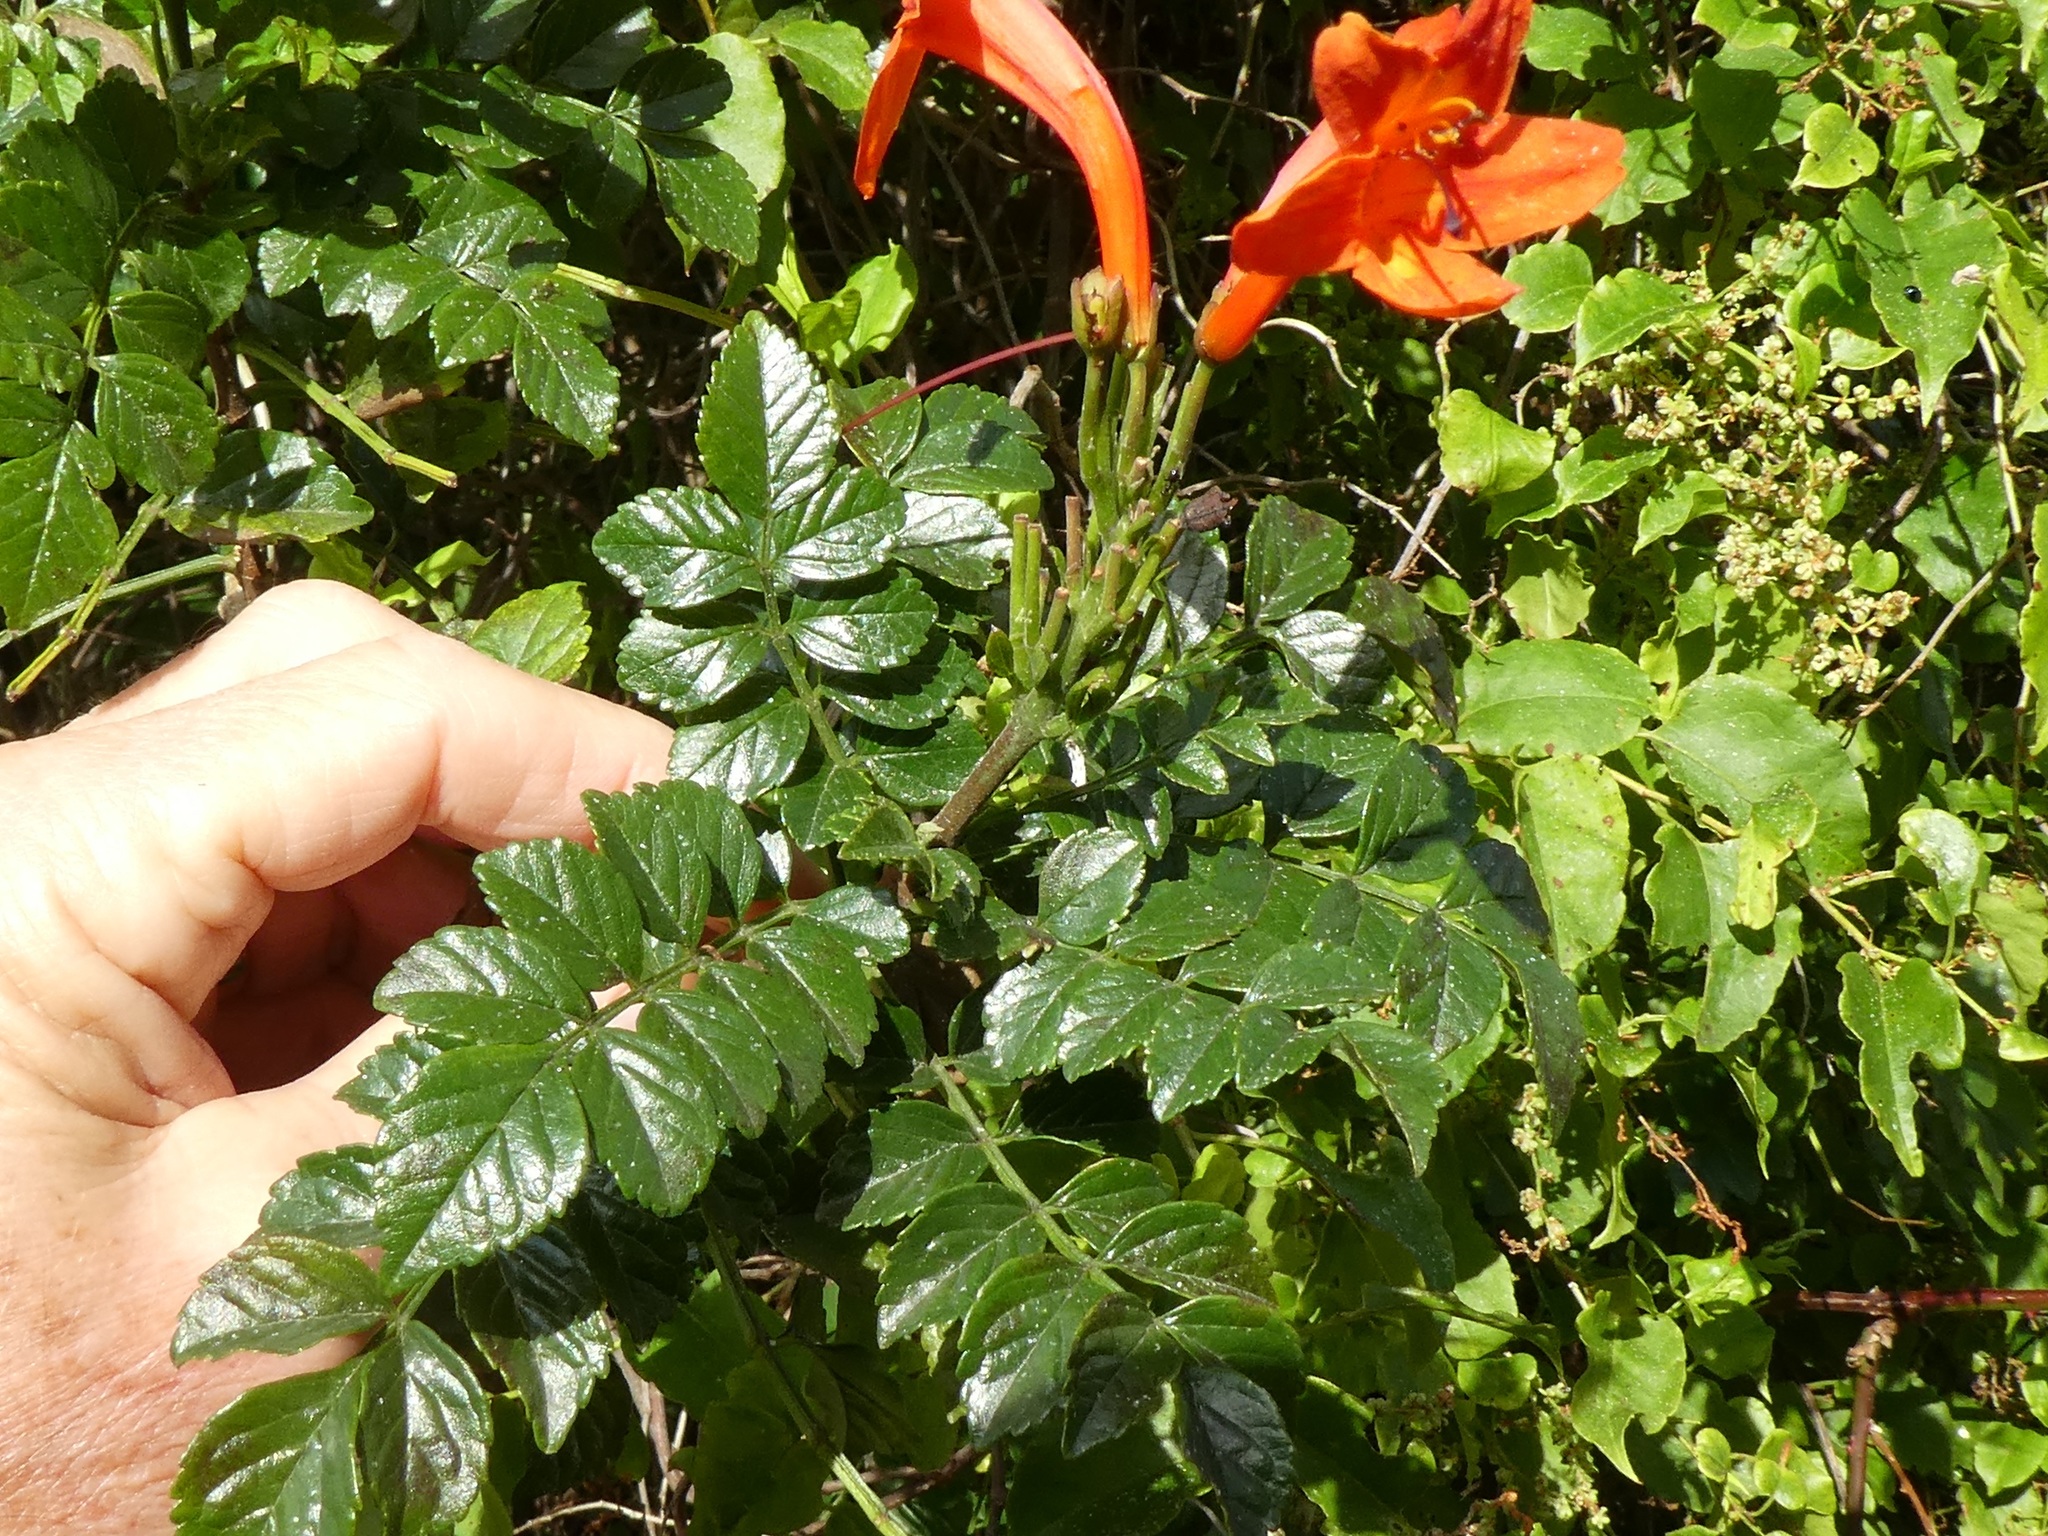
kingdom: Plantae
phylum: Tracheophyta
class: Magnoliopsida
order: Lamiales
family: Bignoniaceae
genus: Tecomaria
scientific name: Tecomaria capensis
